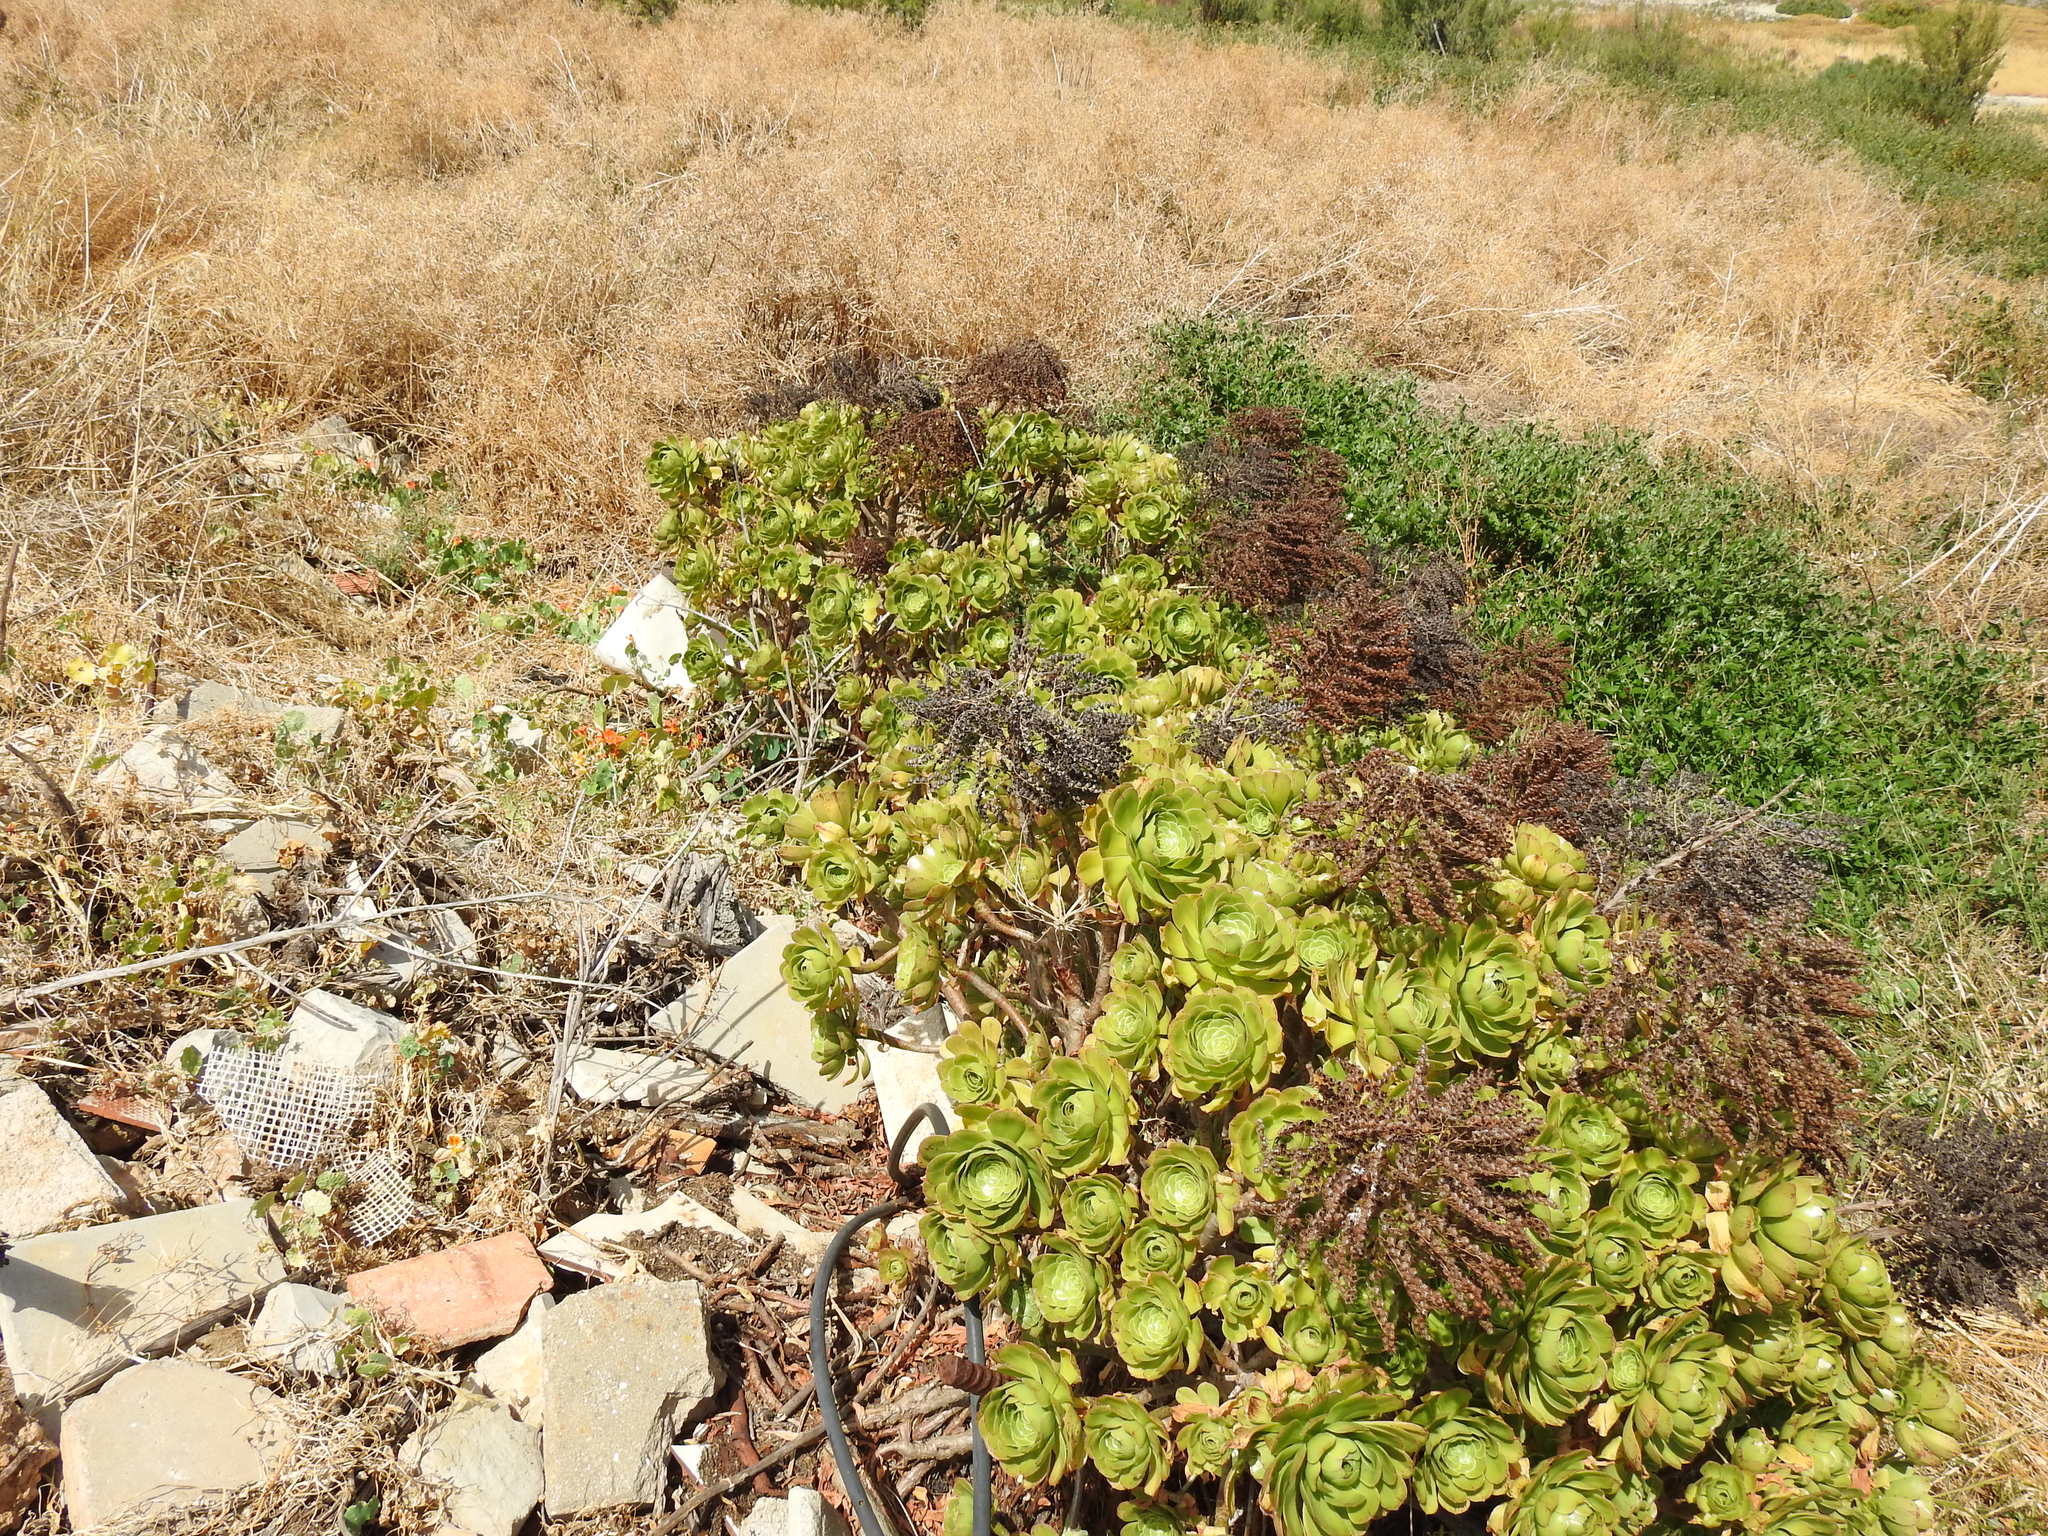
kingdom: Plantae
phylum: Tracheophyta
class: Magnoliopsida
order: Saxifragales
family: Crassulaceae
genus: Aeonium
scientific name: Aeonium arboreum
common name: Tree aeonium
